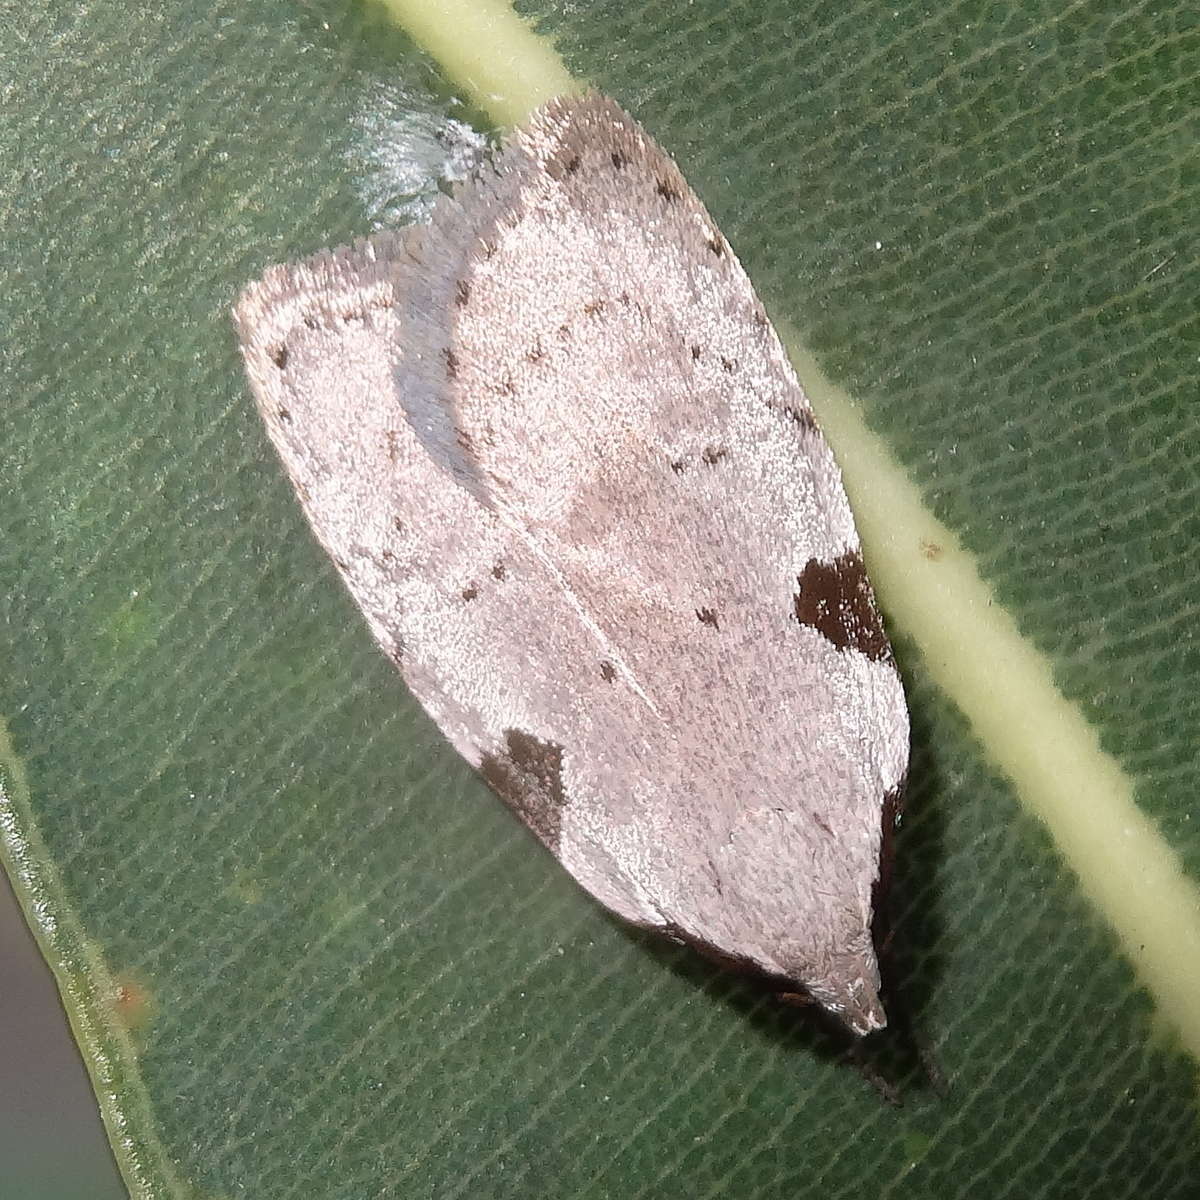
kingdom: Animalia
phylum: Arthropoda
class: Insecta
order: Lepidoptera
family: Oecophoridae
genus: Zonopetala
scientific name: Zonopetala quadripustulella
